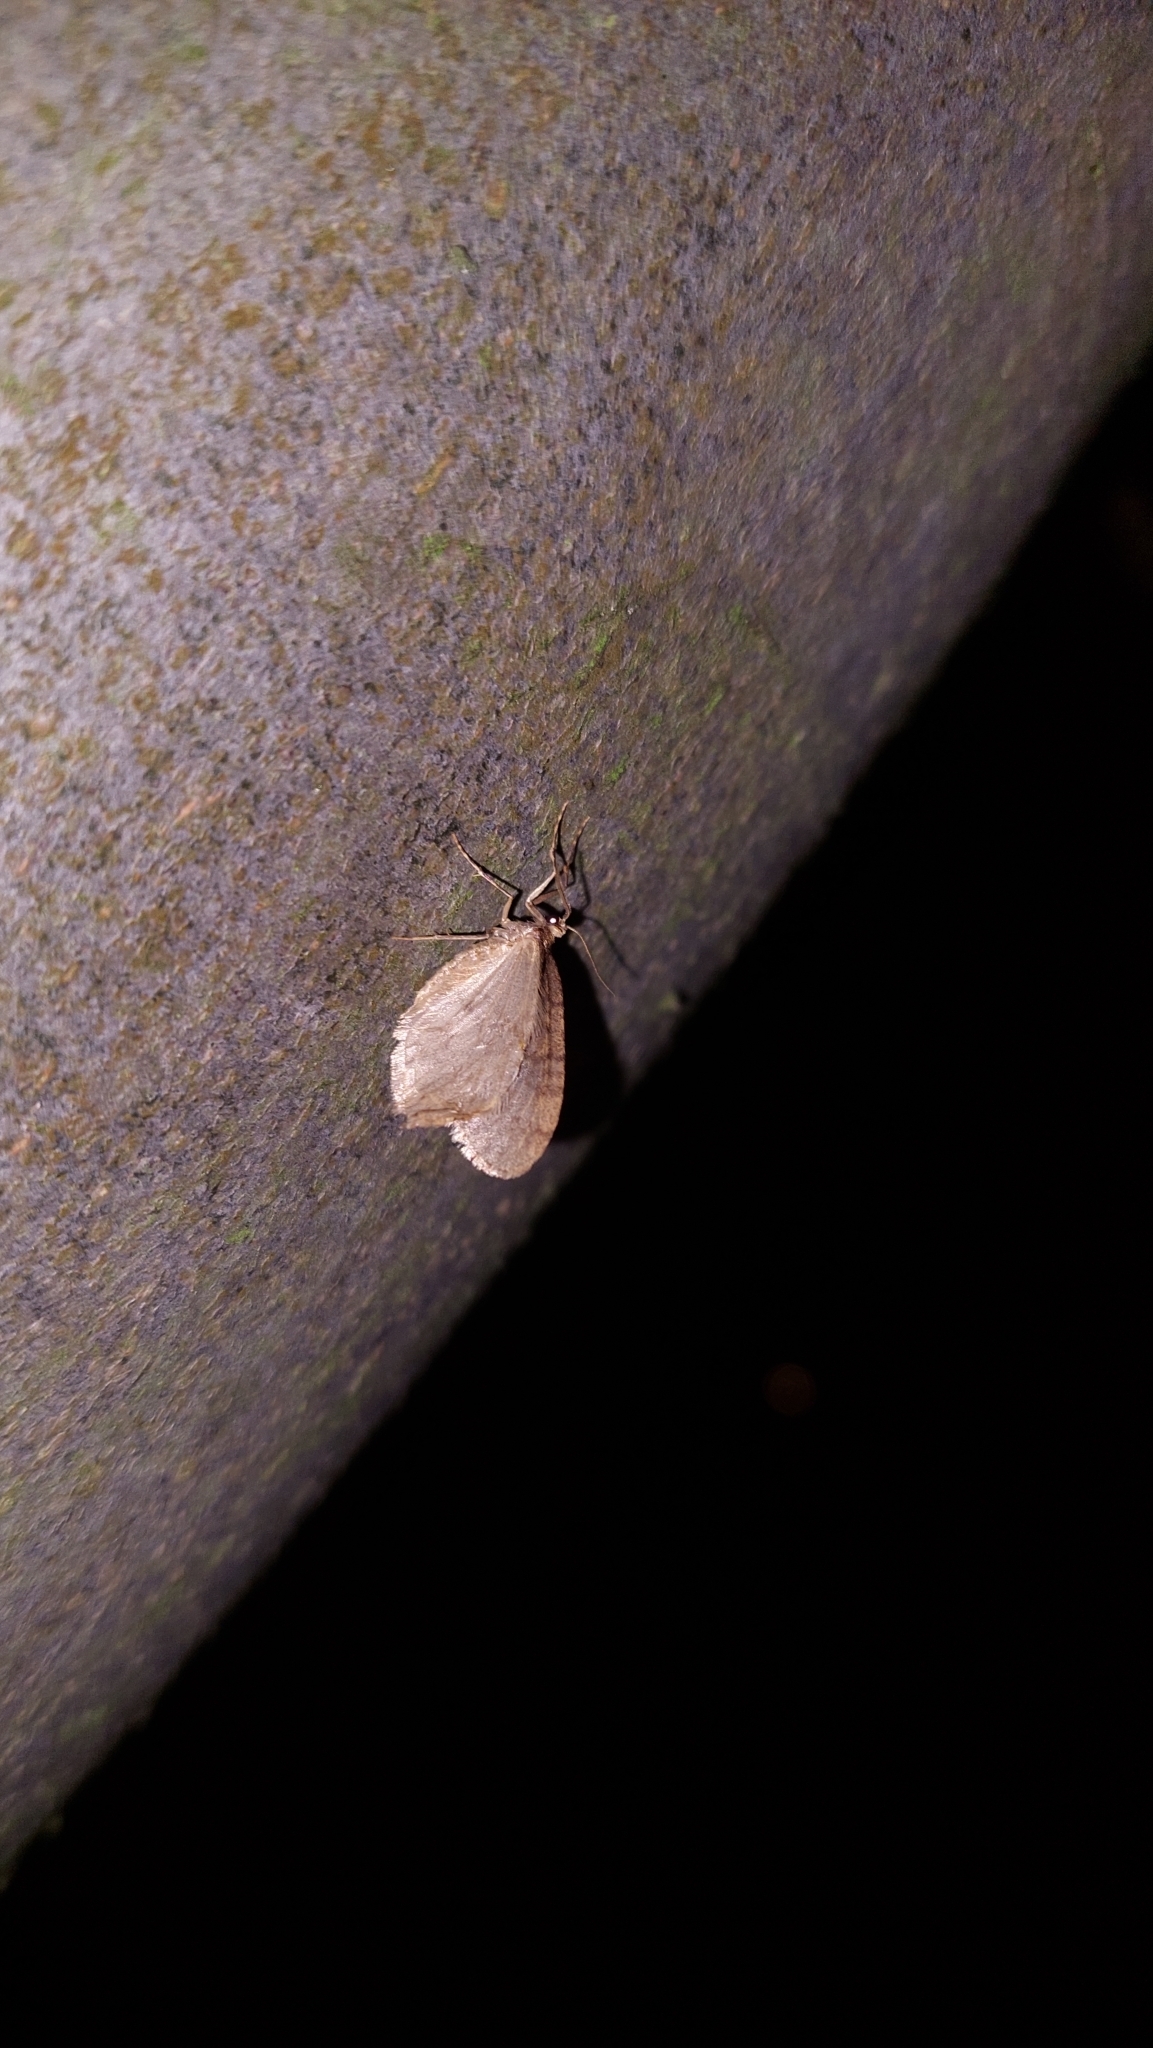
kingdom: Animalia
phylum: Arthropoda
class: Insecta
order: Lepidoptera
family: Geometridae
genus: Operophtera
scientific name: Operophtera brumata
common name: Winter moth
